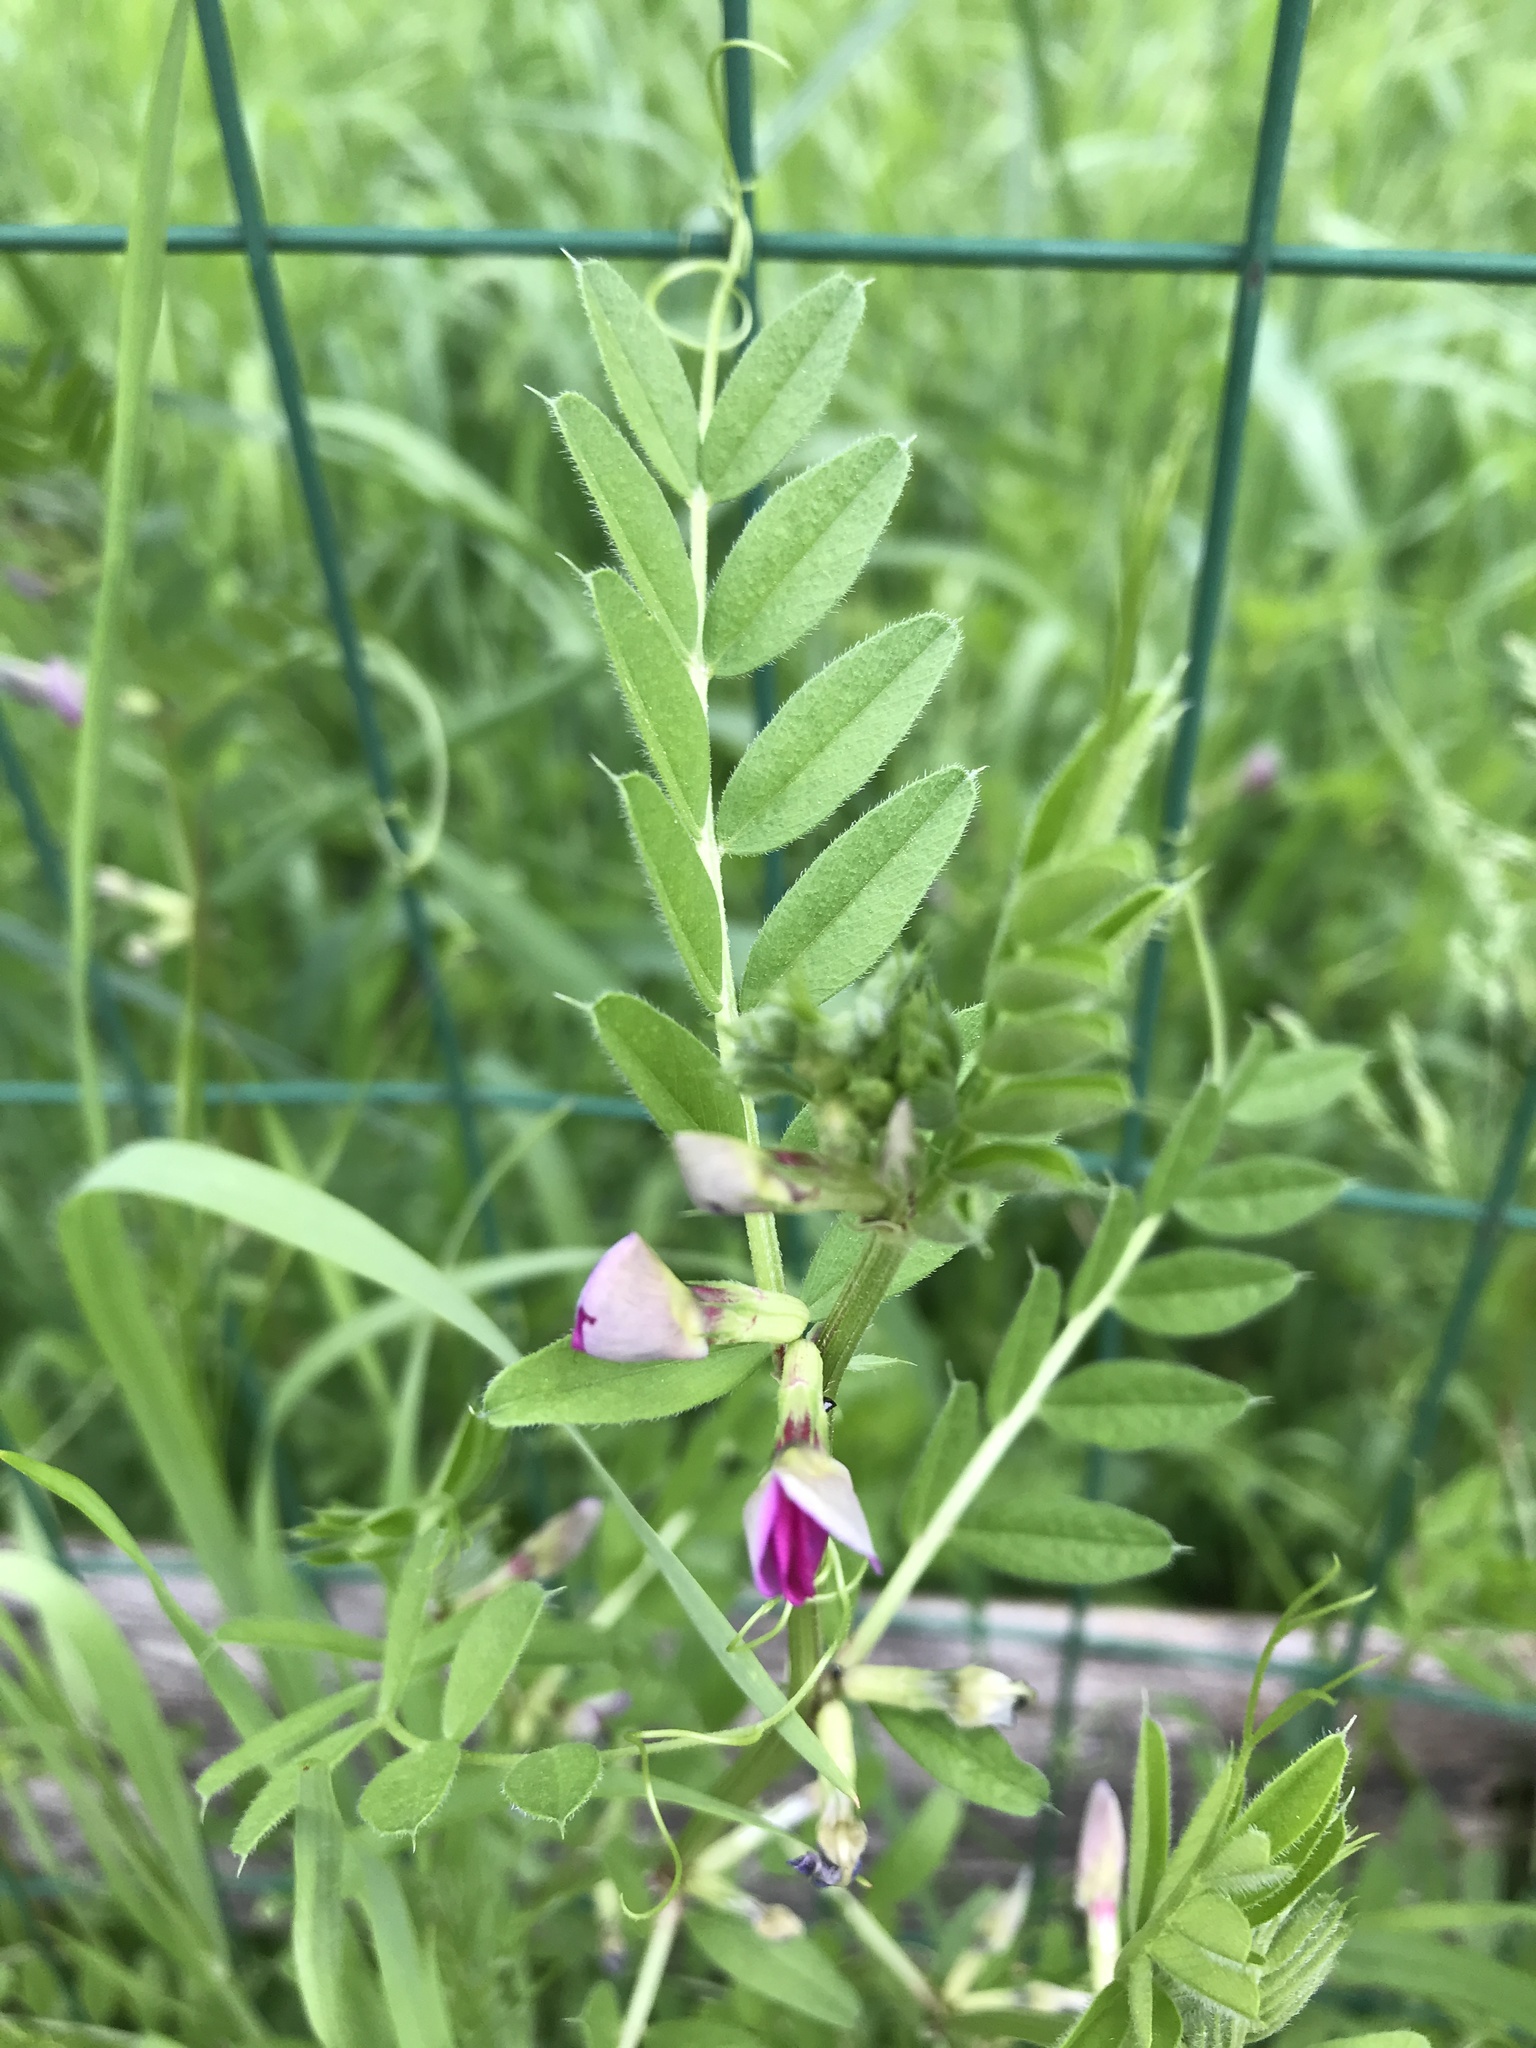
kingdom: Plantae
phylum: Tracheophyta
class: Magnoliopsida
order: Fabales
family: Fabaceae
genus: Vicia
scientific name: Vicia sativa
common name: Garden vetch
